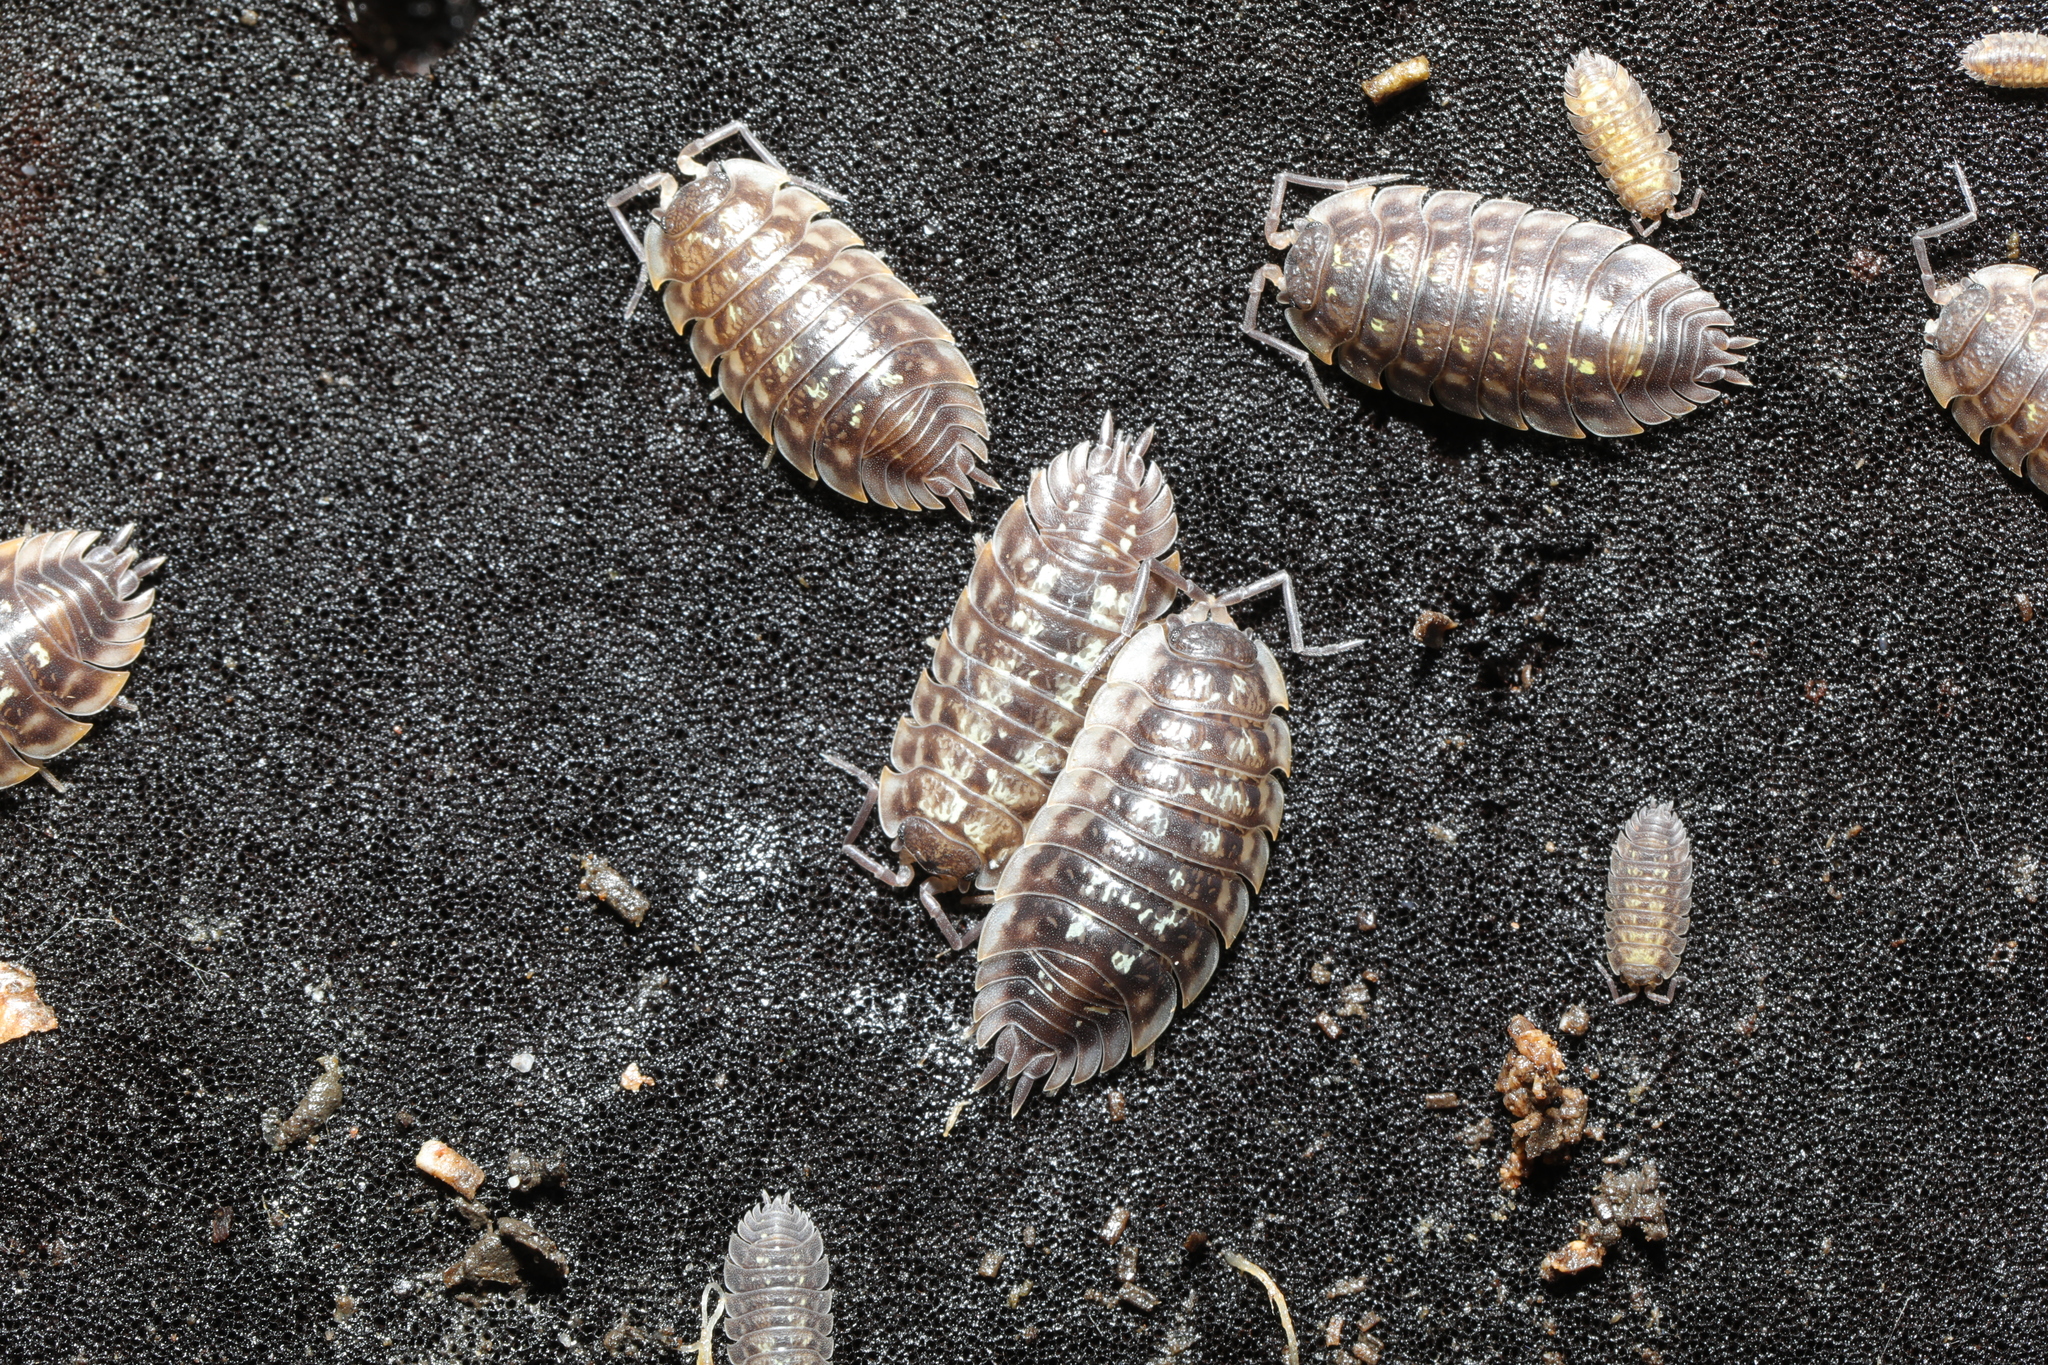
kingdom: Animalia
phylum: Arthropoda
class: Malacostraca
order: Isopoda
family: Oniscidae
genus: Oniscus
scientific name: Oniscus asellus
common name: Common shiny woodlouse
